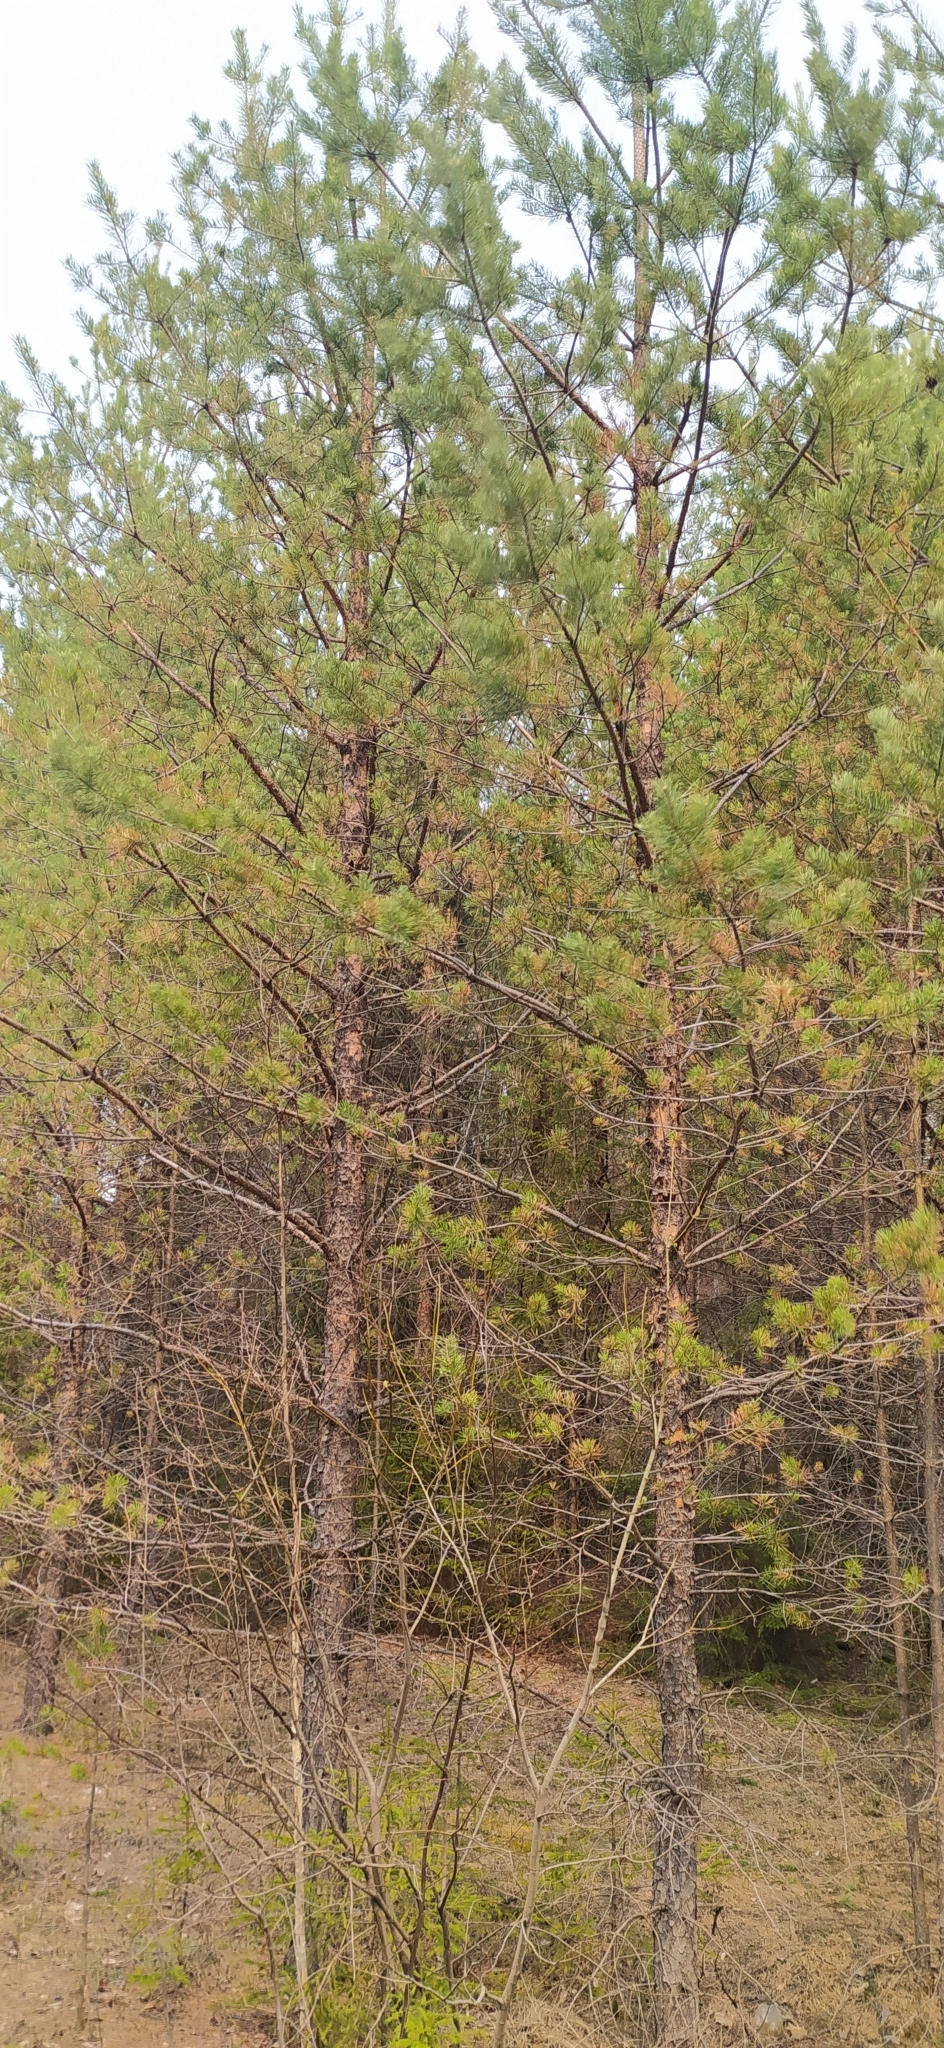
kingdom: Plantae
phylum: Tracheophyta
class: Pinopsida
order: Pinales
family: Pinaceae
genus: Pinus
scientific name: Pinus sylvestris
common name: Scots pine
